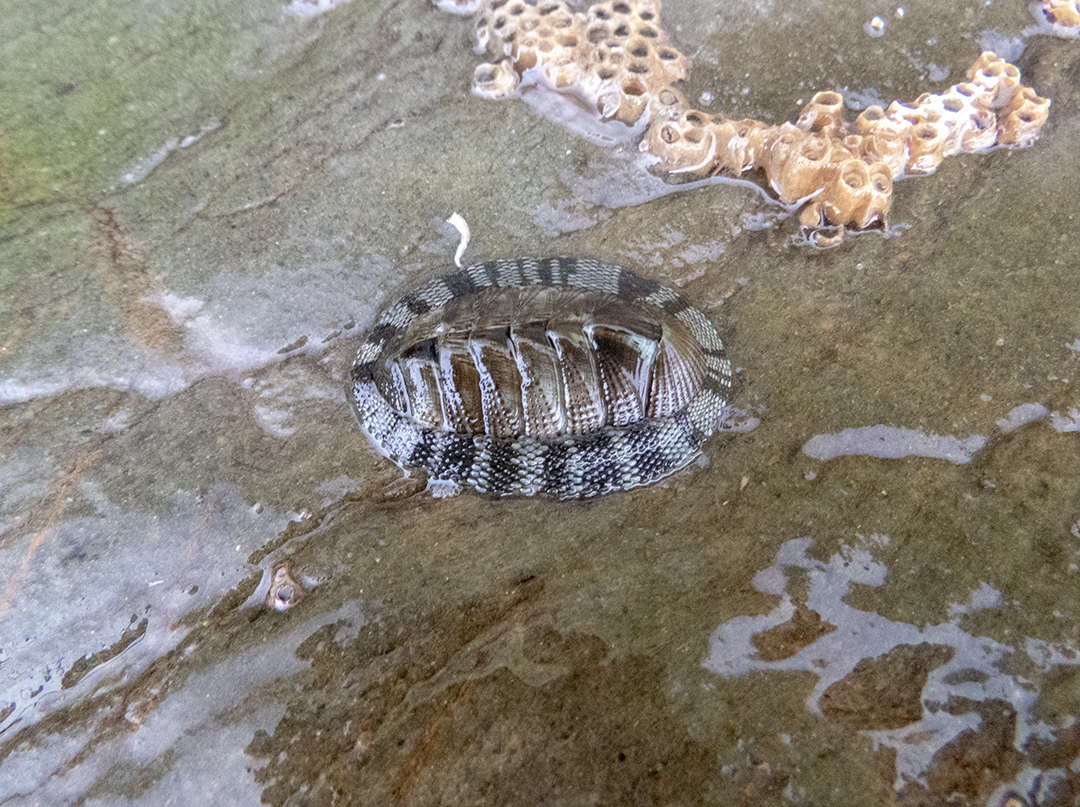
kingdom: Animalia
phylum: Mollusca
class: Polyplacophora
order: Chitonida
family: Chitonidae
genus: Sypharochiton
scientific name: Sypharochiton pelliserpentis
